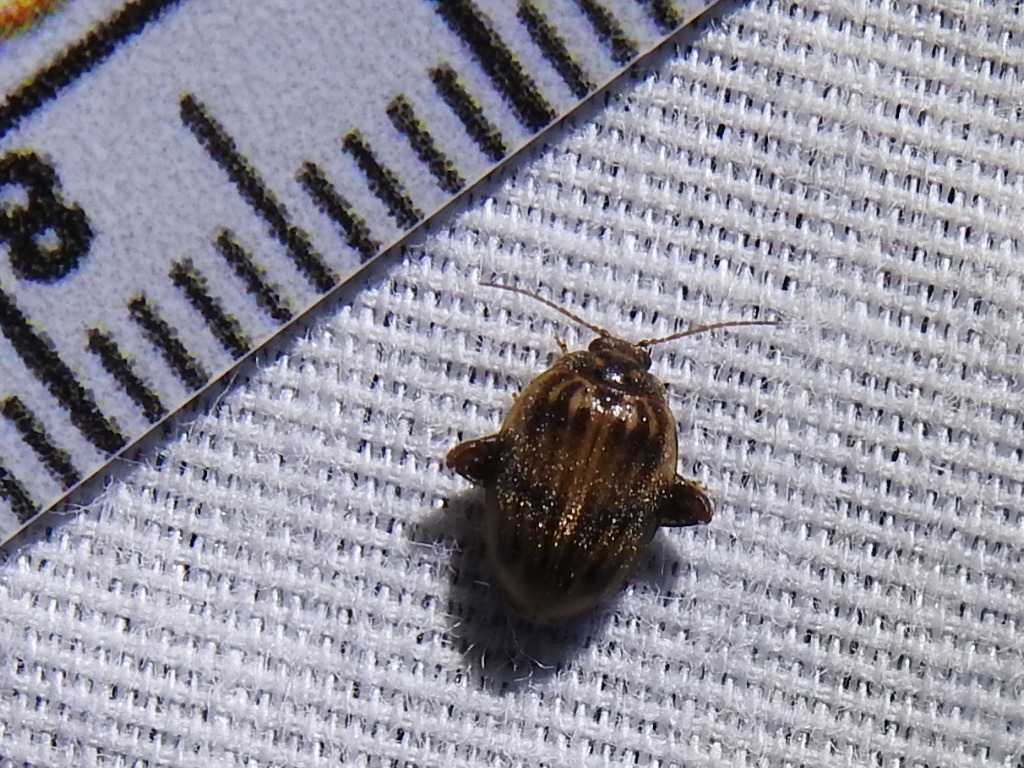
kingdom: Animalia
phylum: Arthropoda
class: Insecta
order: Coleoptera
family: Scirtidae
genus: Ora
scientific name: Ora texana
